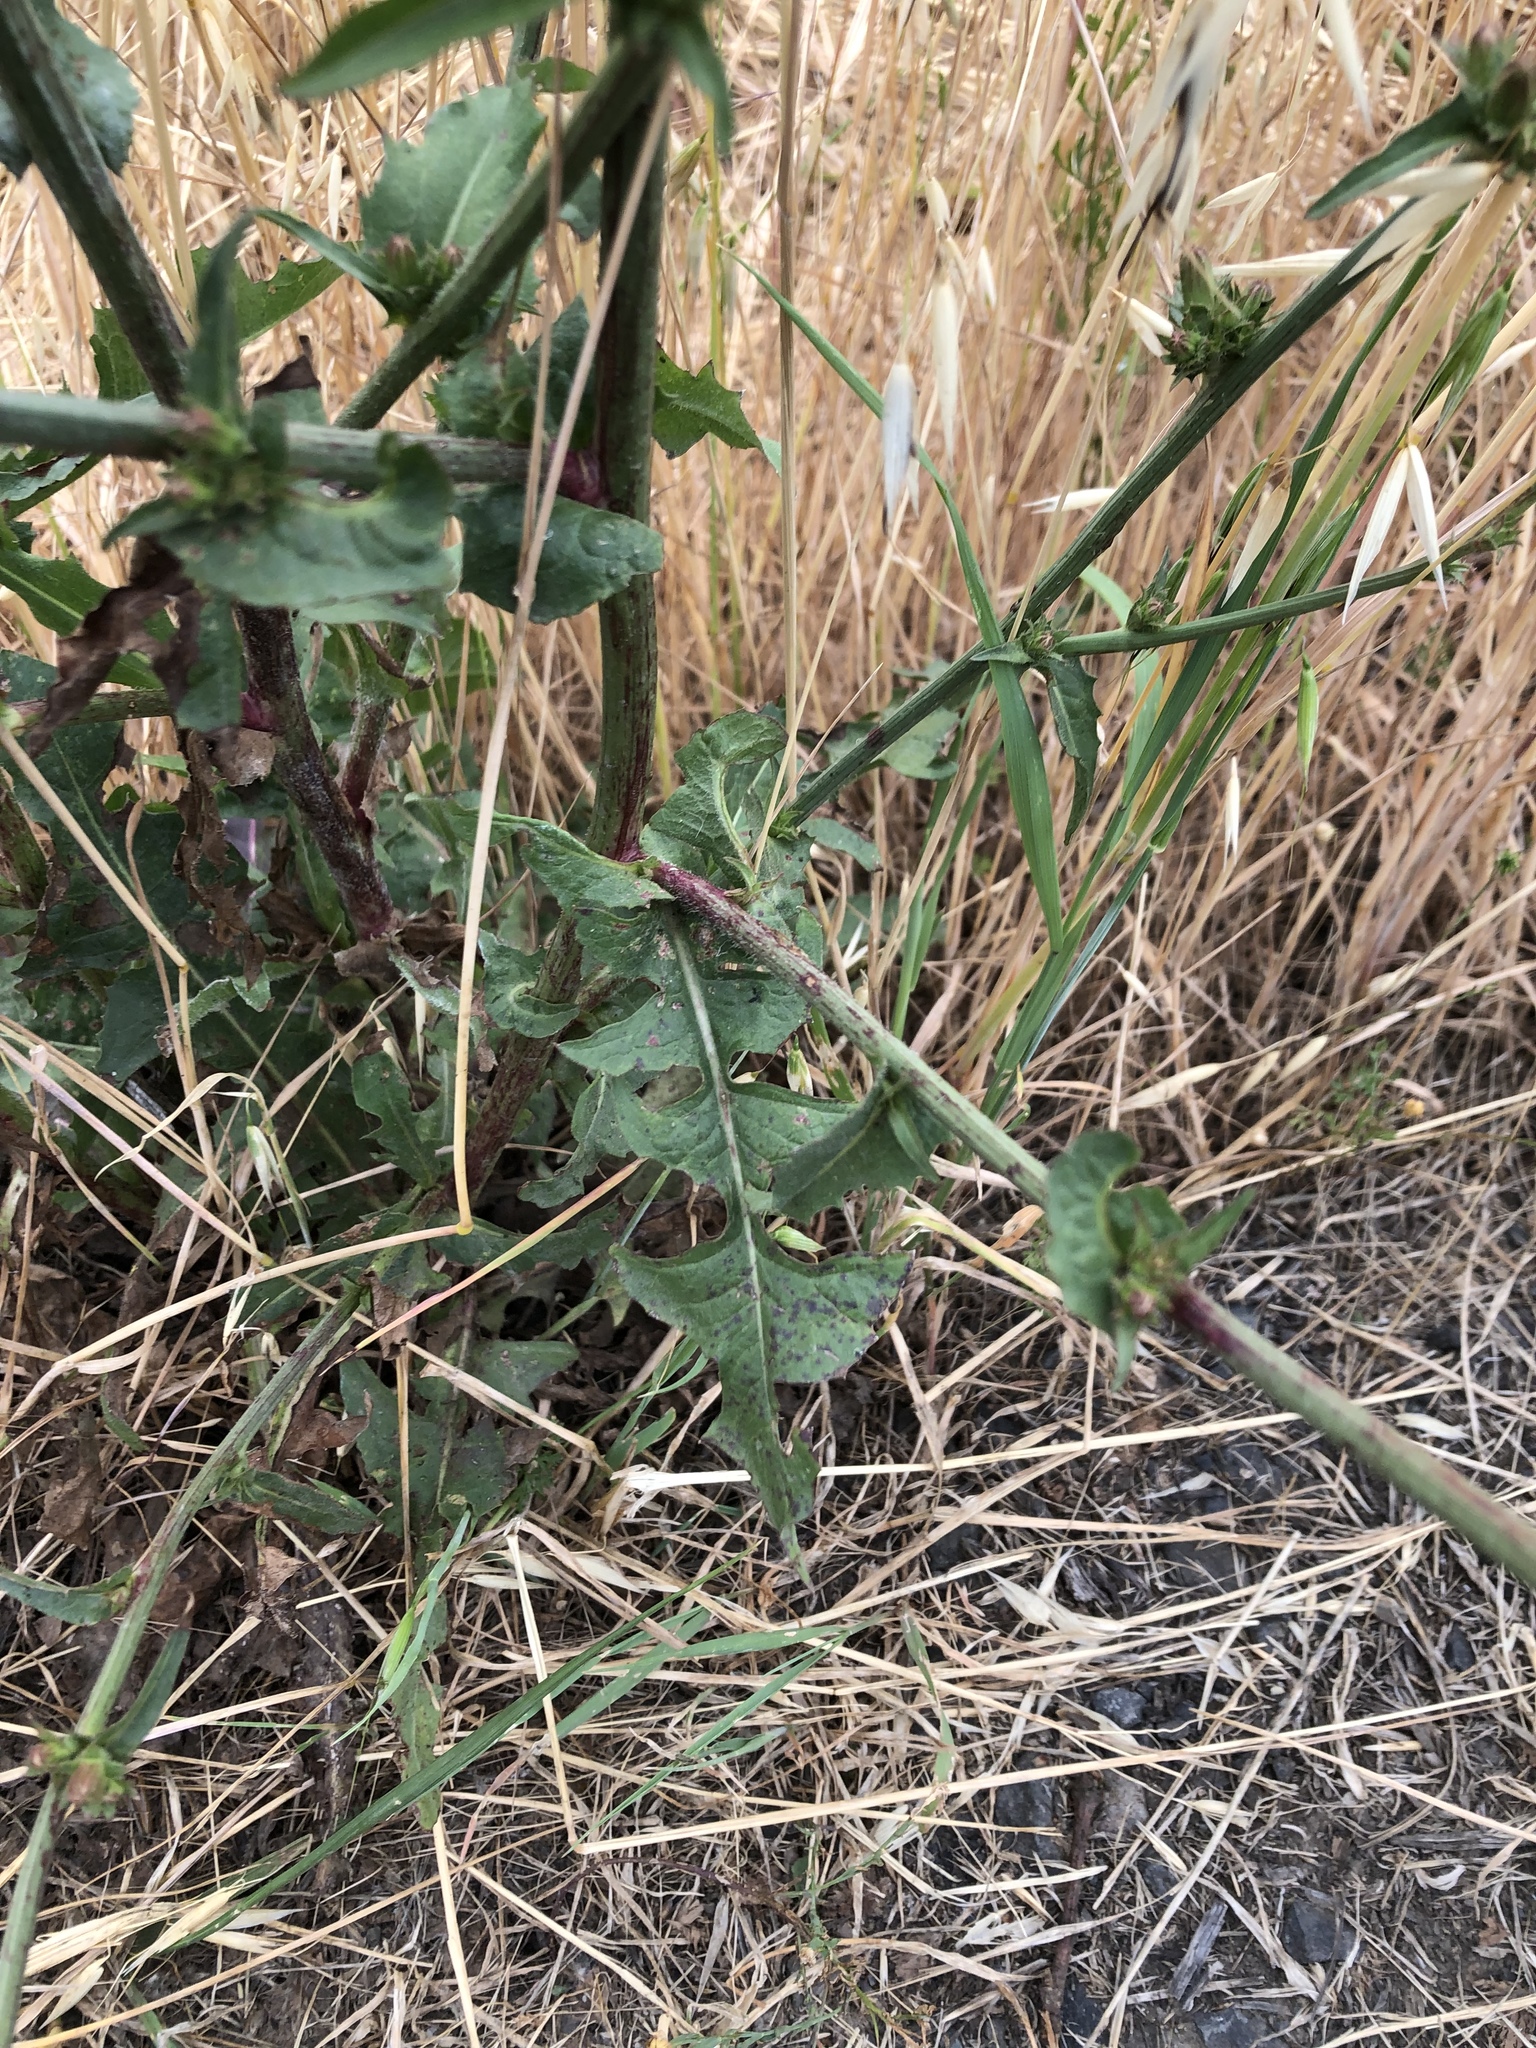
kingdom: Plantae
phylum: Tracheophyta
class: Magnoliopsida
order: Asterales
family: Asteraceae
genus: Cichorium
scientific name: Cichorium intybus
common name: Chicory
